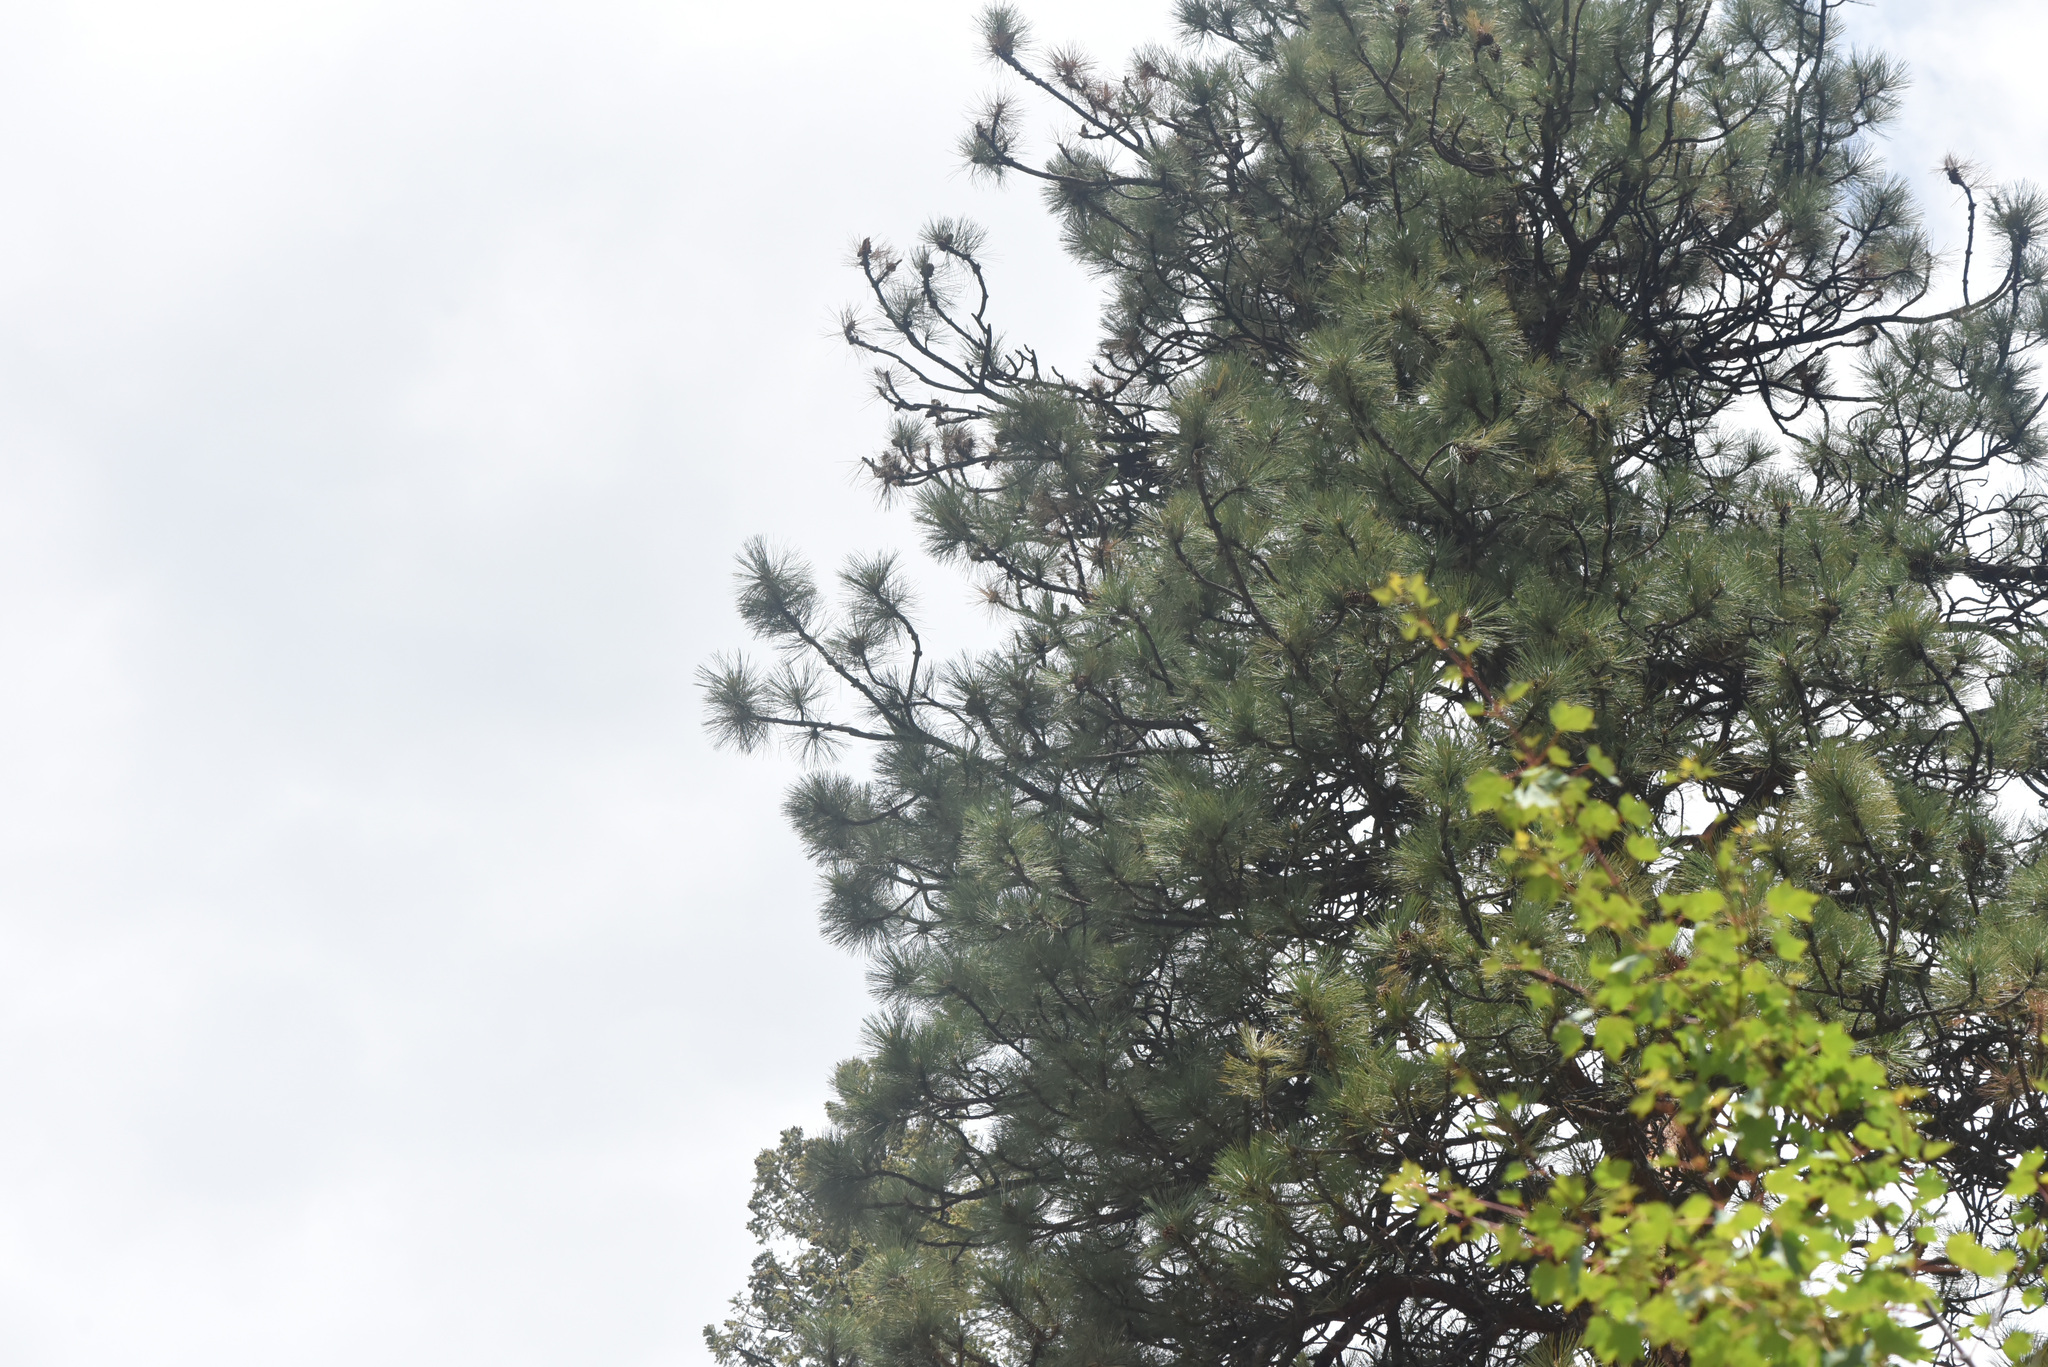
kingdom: Plantae
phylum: Tracheophyta
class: Pinopsida
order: Pinales
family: Pinaceae
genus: Pinus
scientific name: Pinus ponderosa
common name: Western yellow-pine
